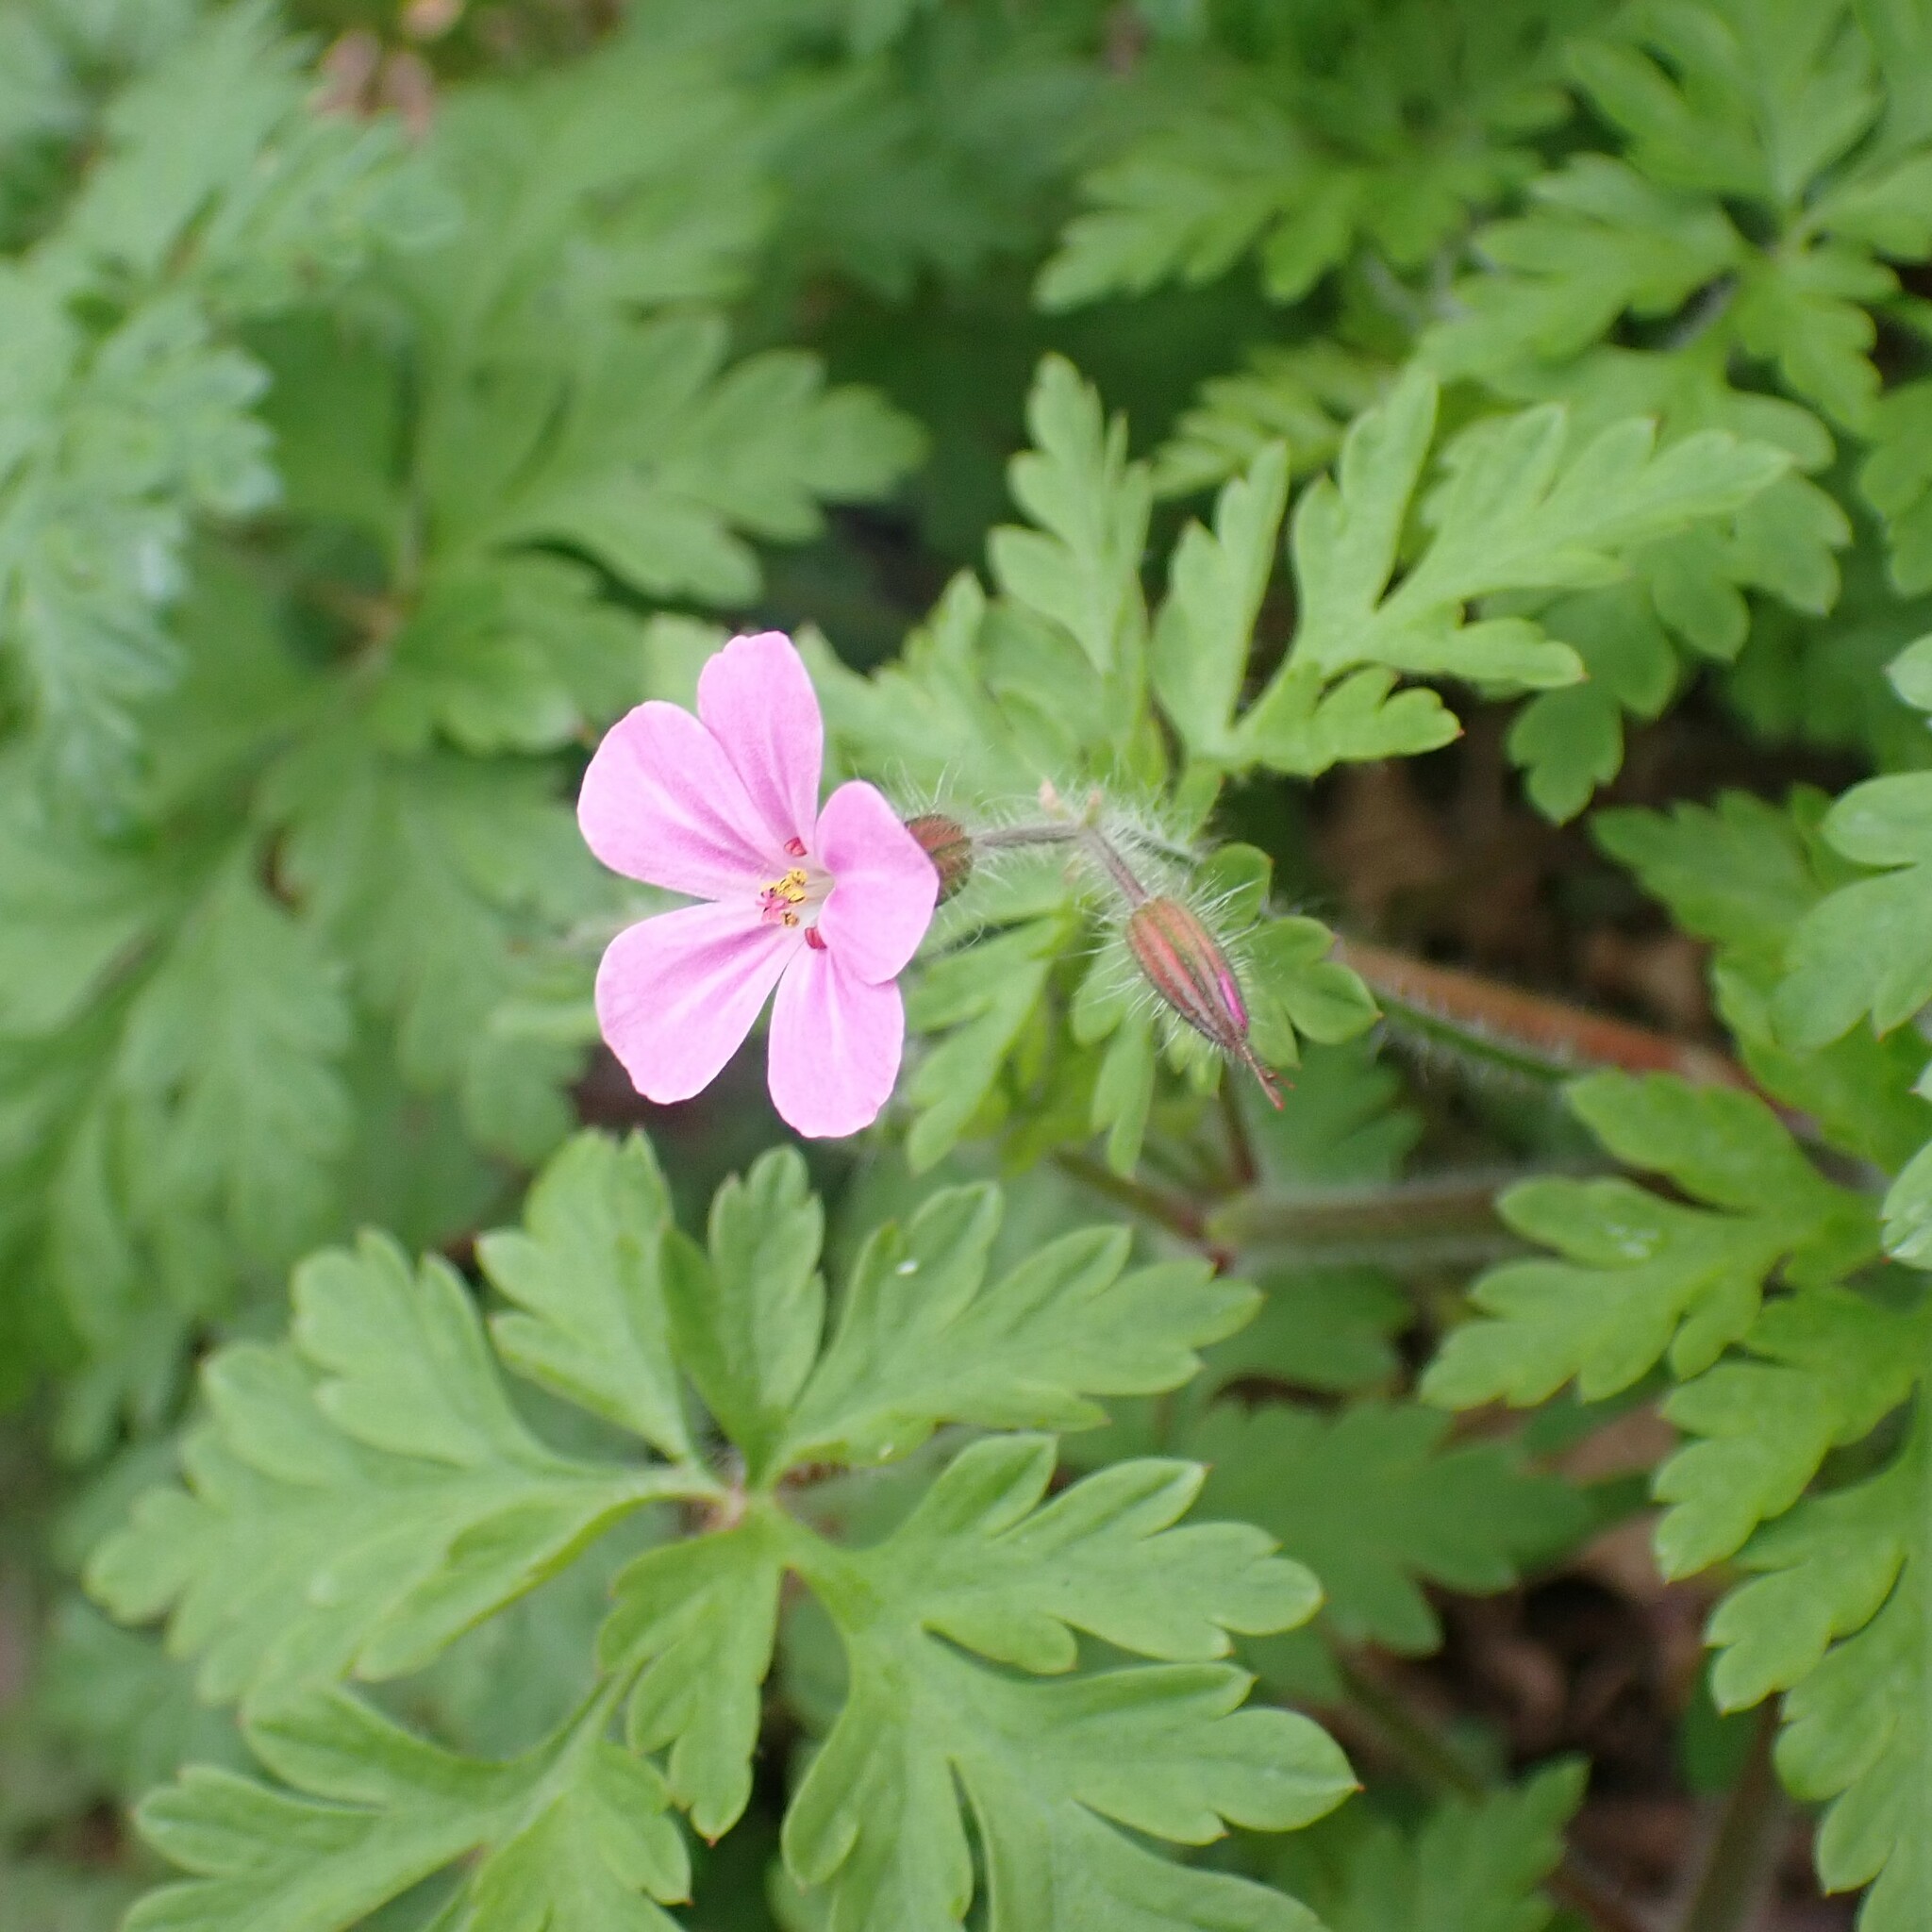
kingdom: Plantae
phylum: Tracheophyta
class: Magnoliopsida
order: Geraniales
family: Geraniaceae
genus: Geranium
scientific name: Geranium robertianum
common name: Herb-robert
